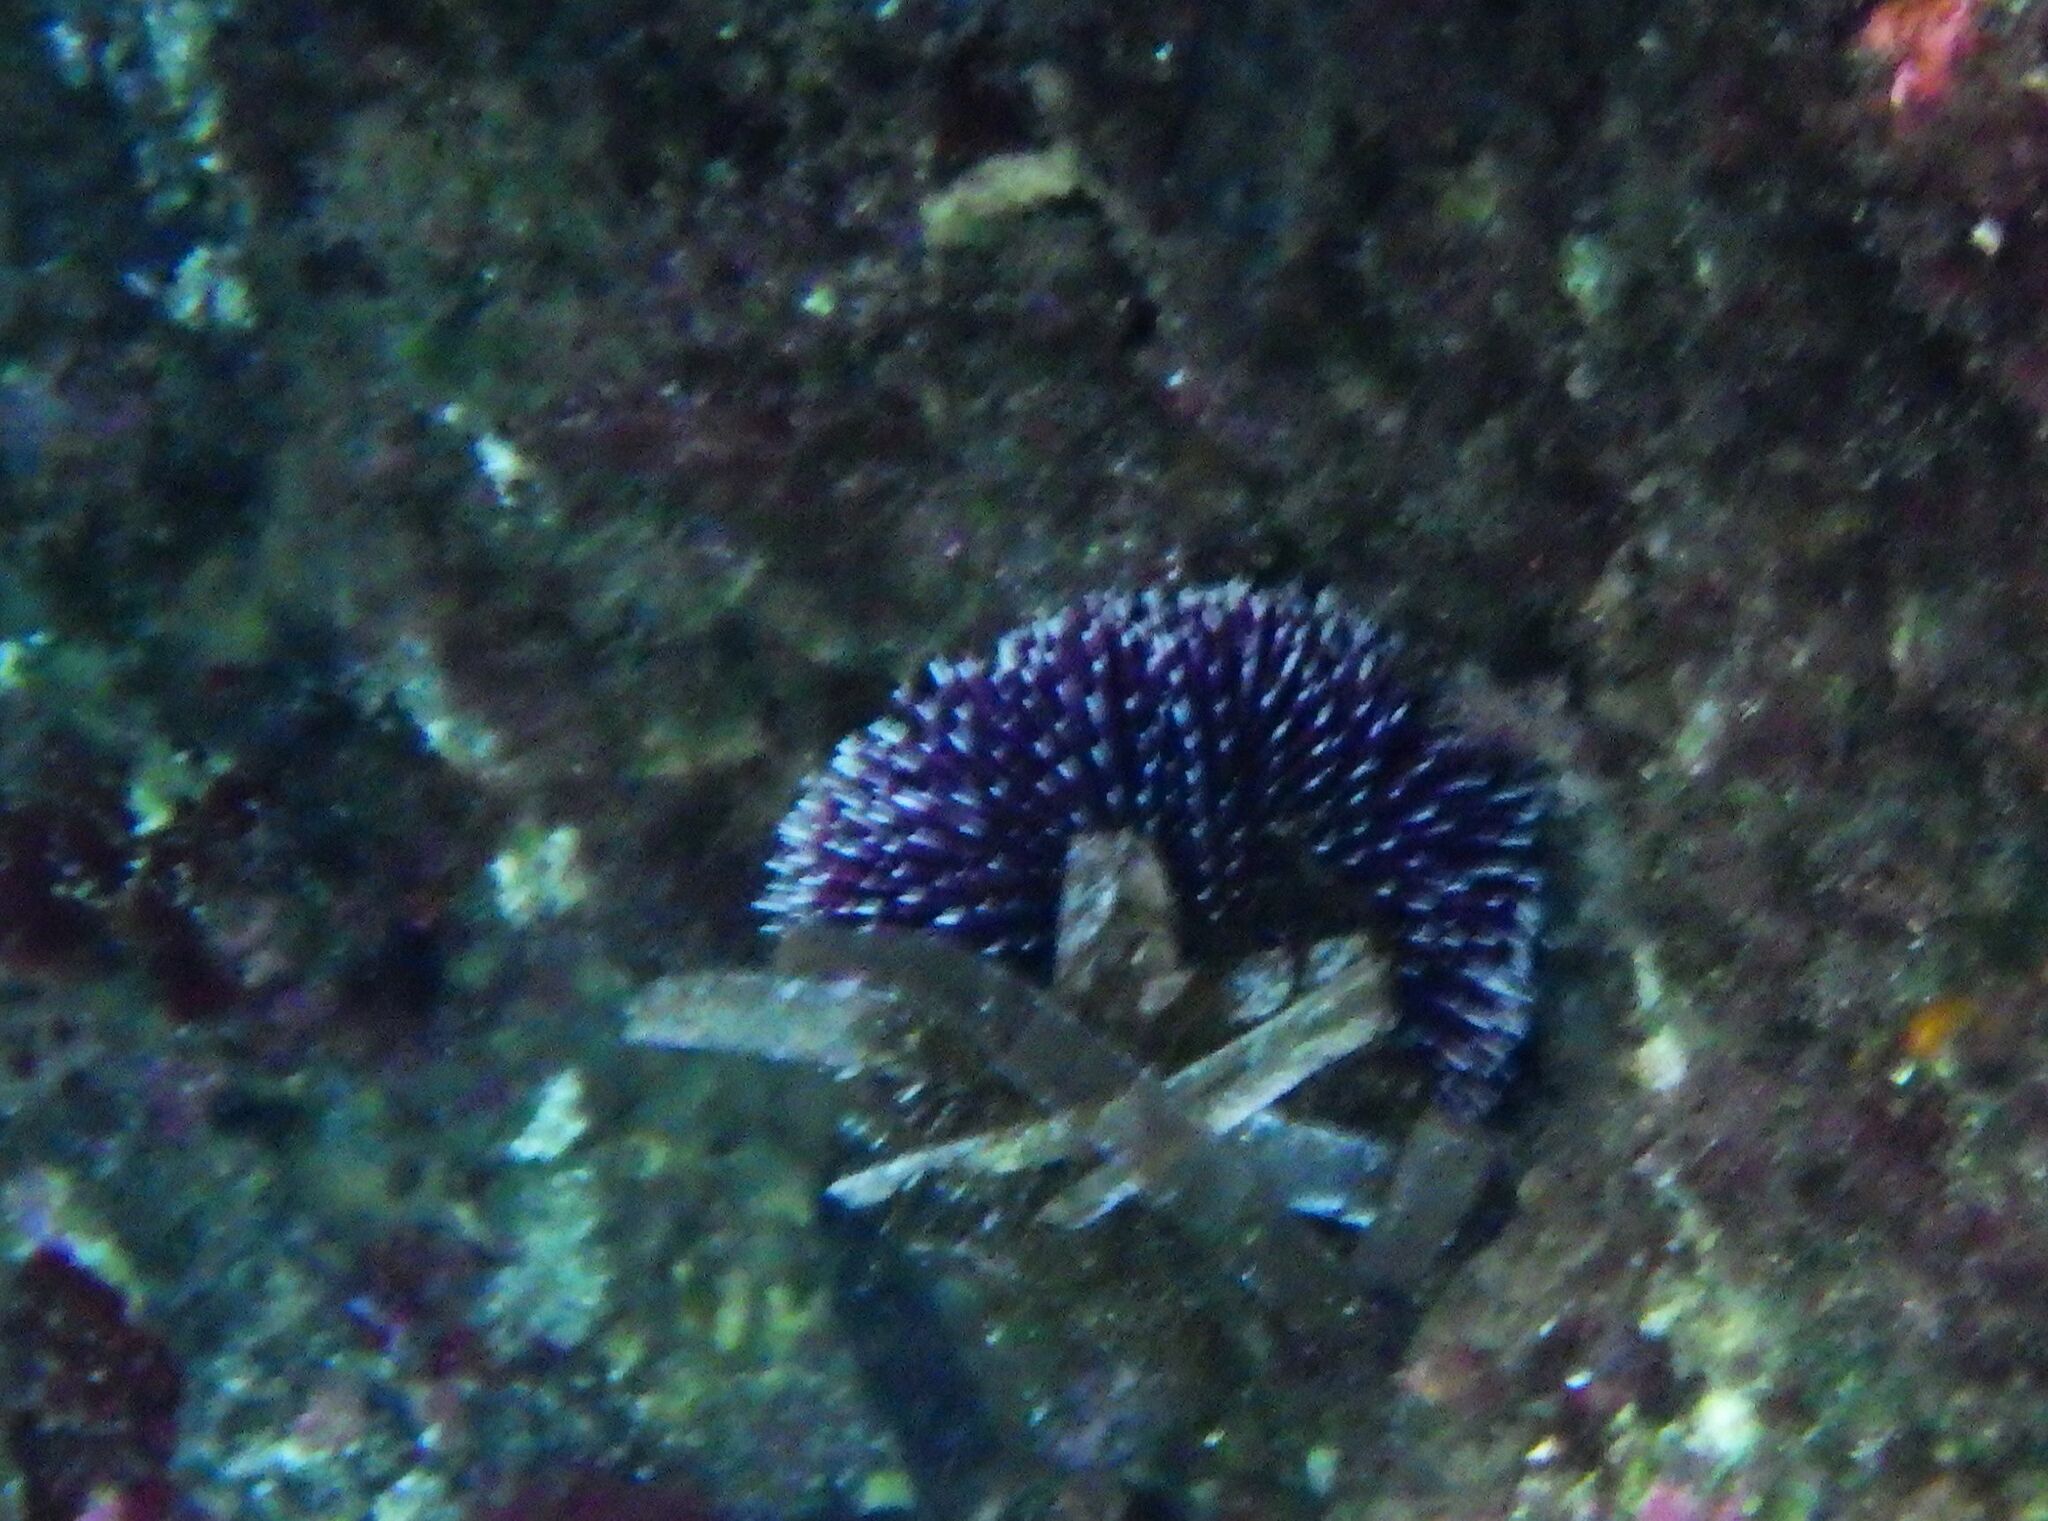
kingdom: Animalia
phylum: Echinodermata
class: Echinoidea
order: Camarodonta
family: Toxopneustidae
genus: Sphaerechinus
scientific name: Sphaerechinus granularis
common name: Violet sea urchin
